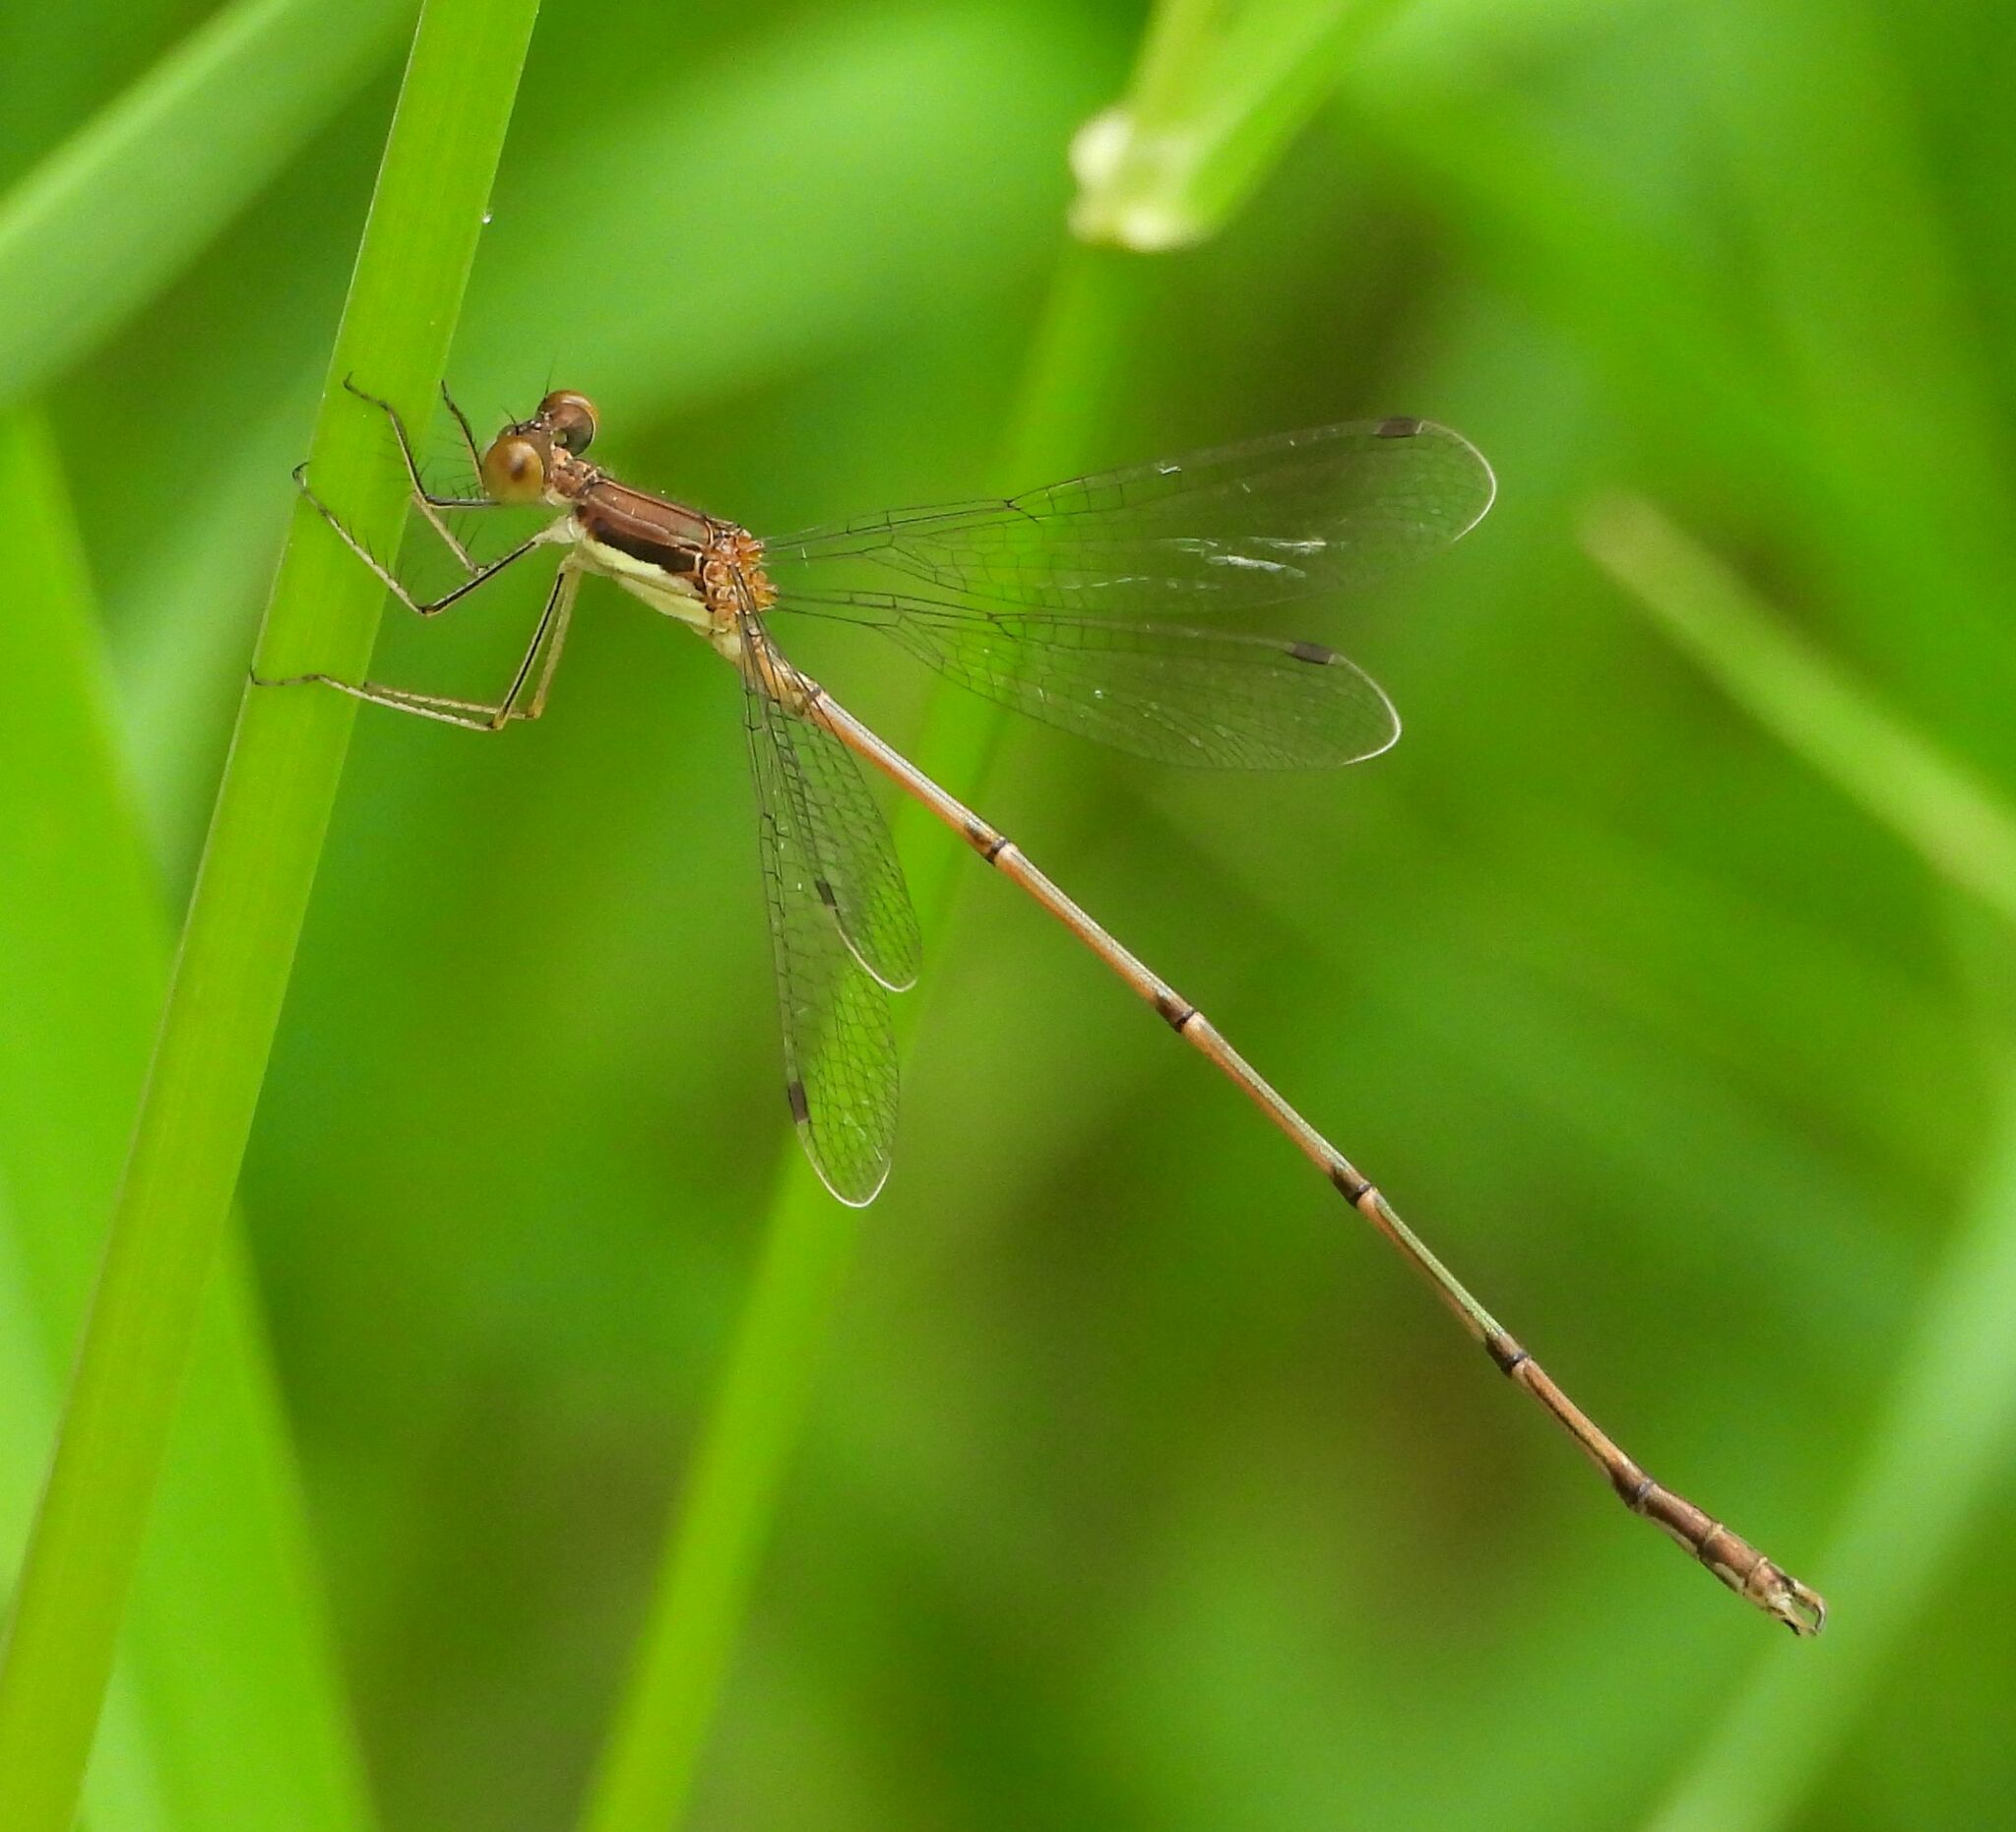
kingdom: Animalia
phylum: Arthropoda
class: Insecta
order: Odonata
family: Lestidae
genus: Lestes
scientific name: Lestes rectangularis
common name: Slender spreadwing
